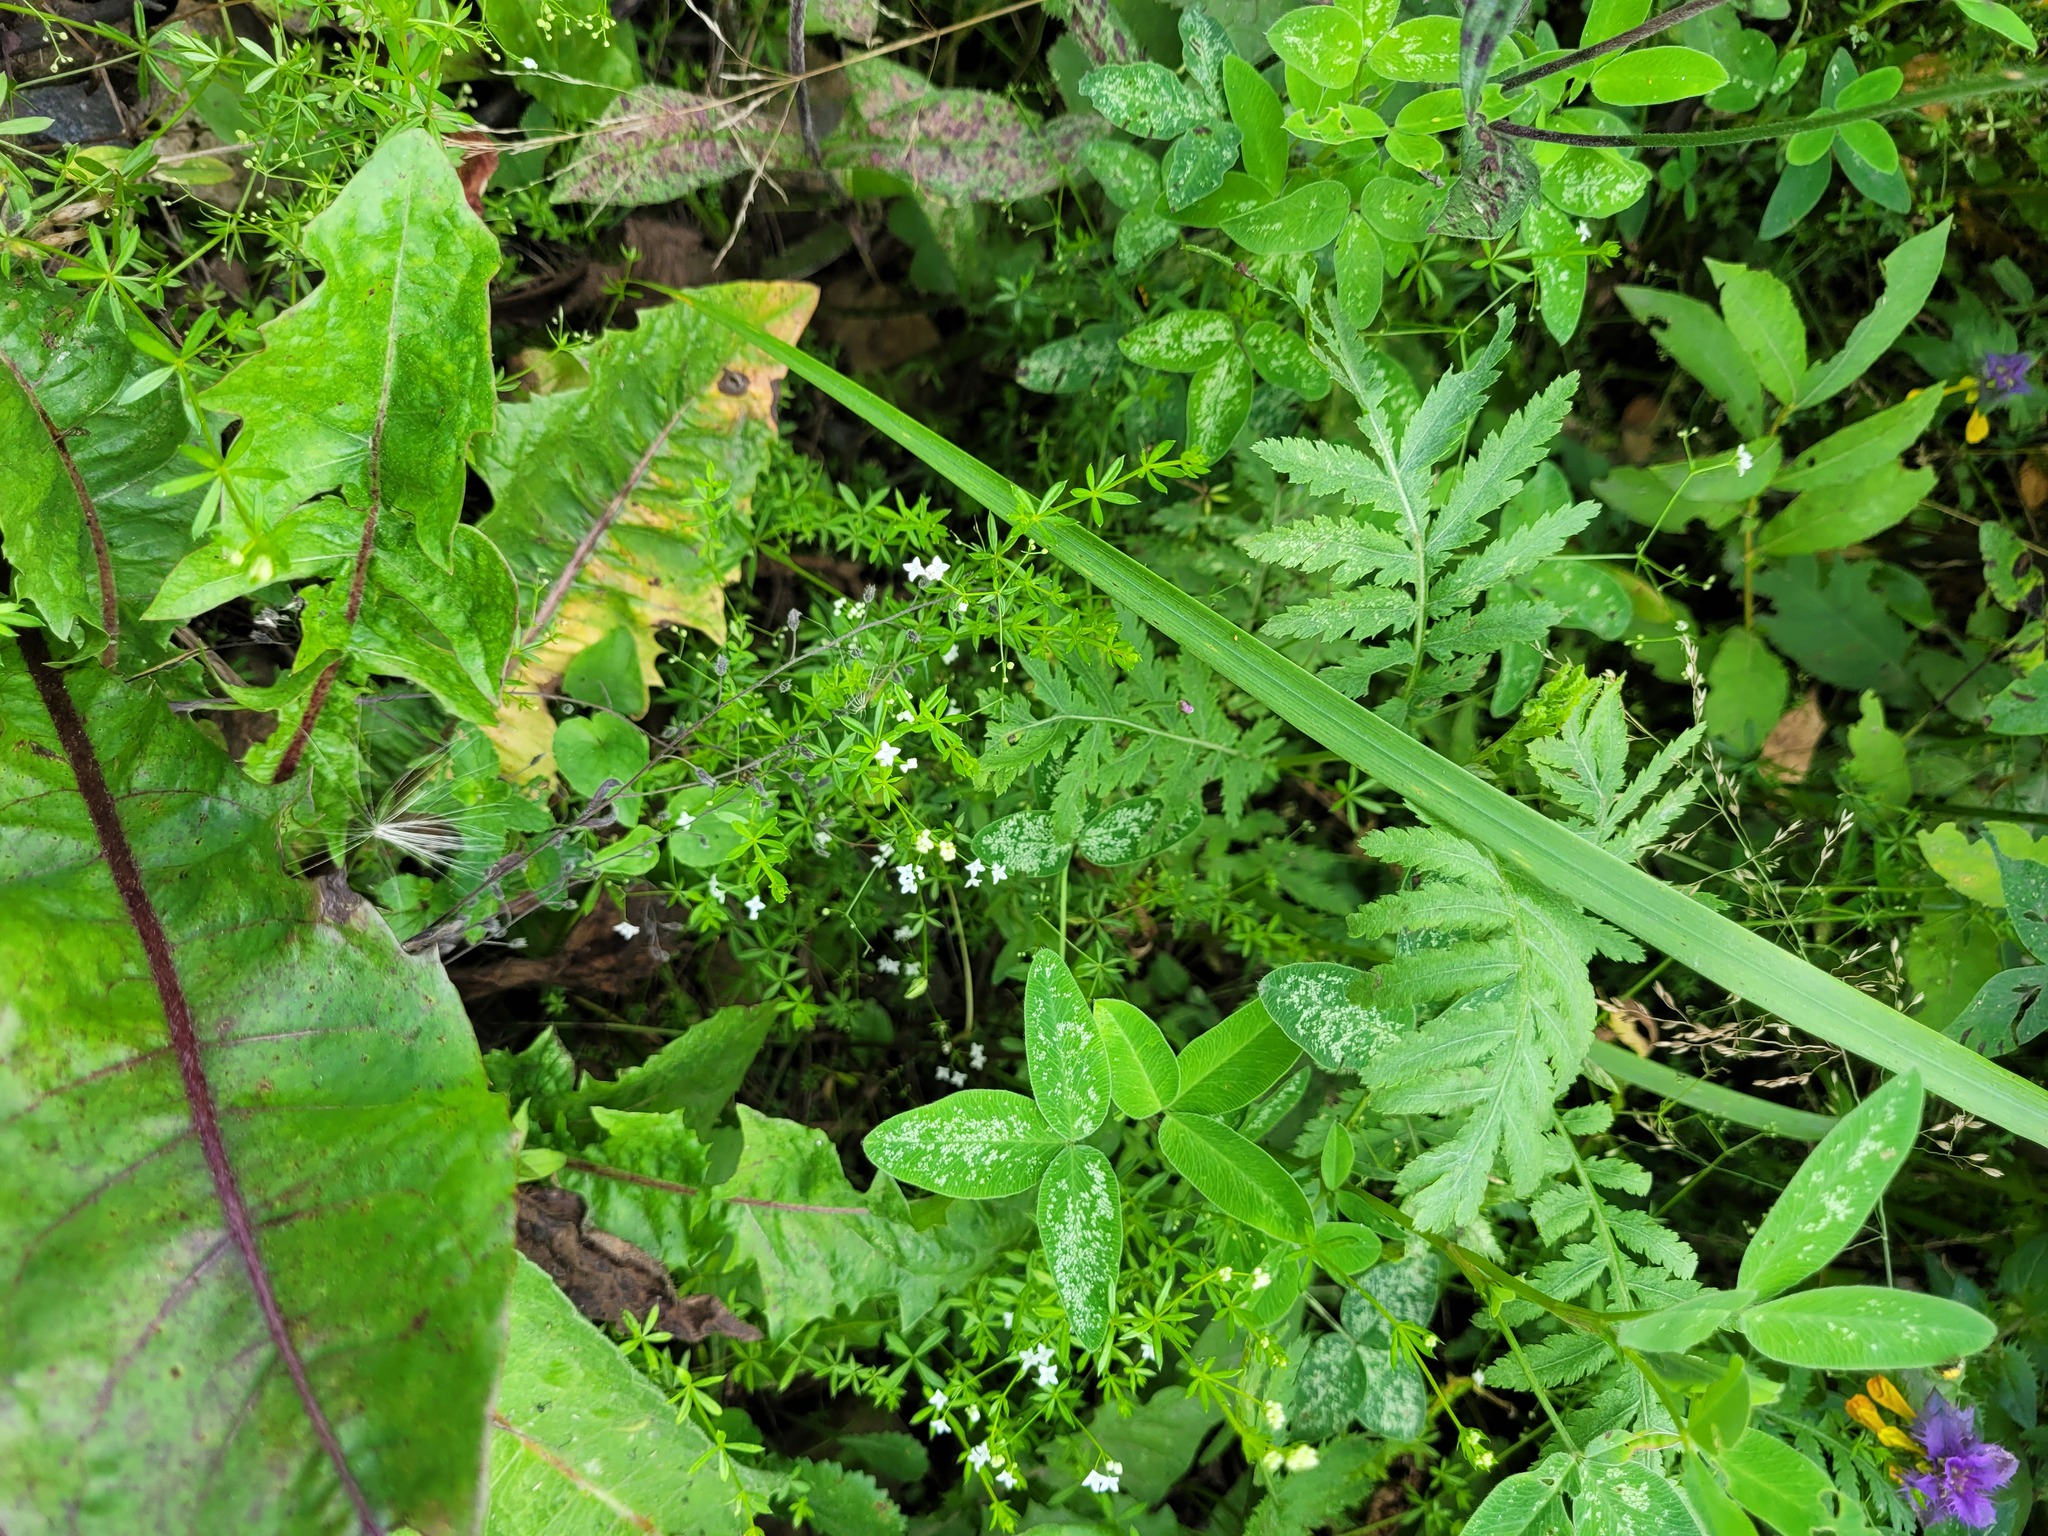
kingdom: Plantae
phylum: Tracheophyta
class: Magnoliopsida
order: Gentianales
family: Rubiaceae
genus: Galium
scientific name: Galium uliginosum
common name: Fen bedstraw
